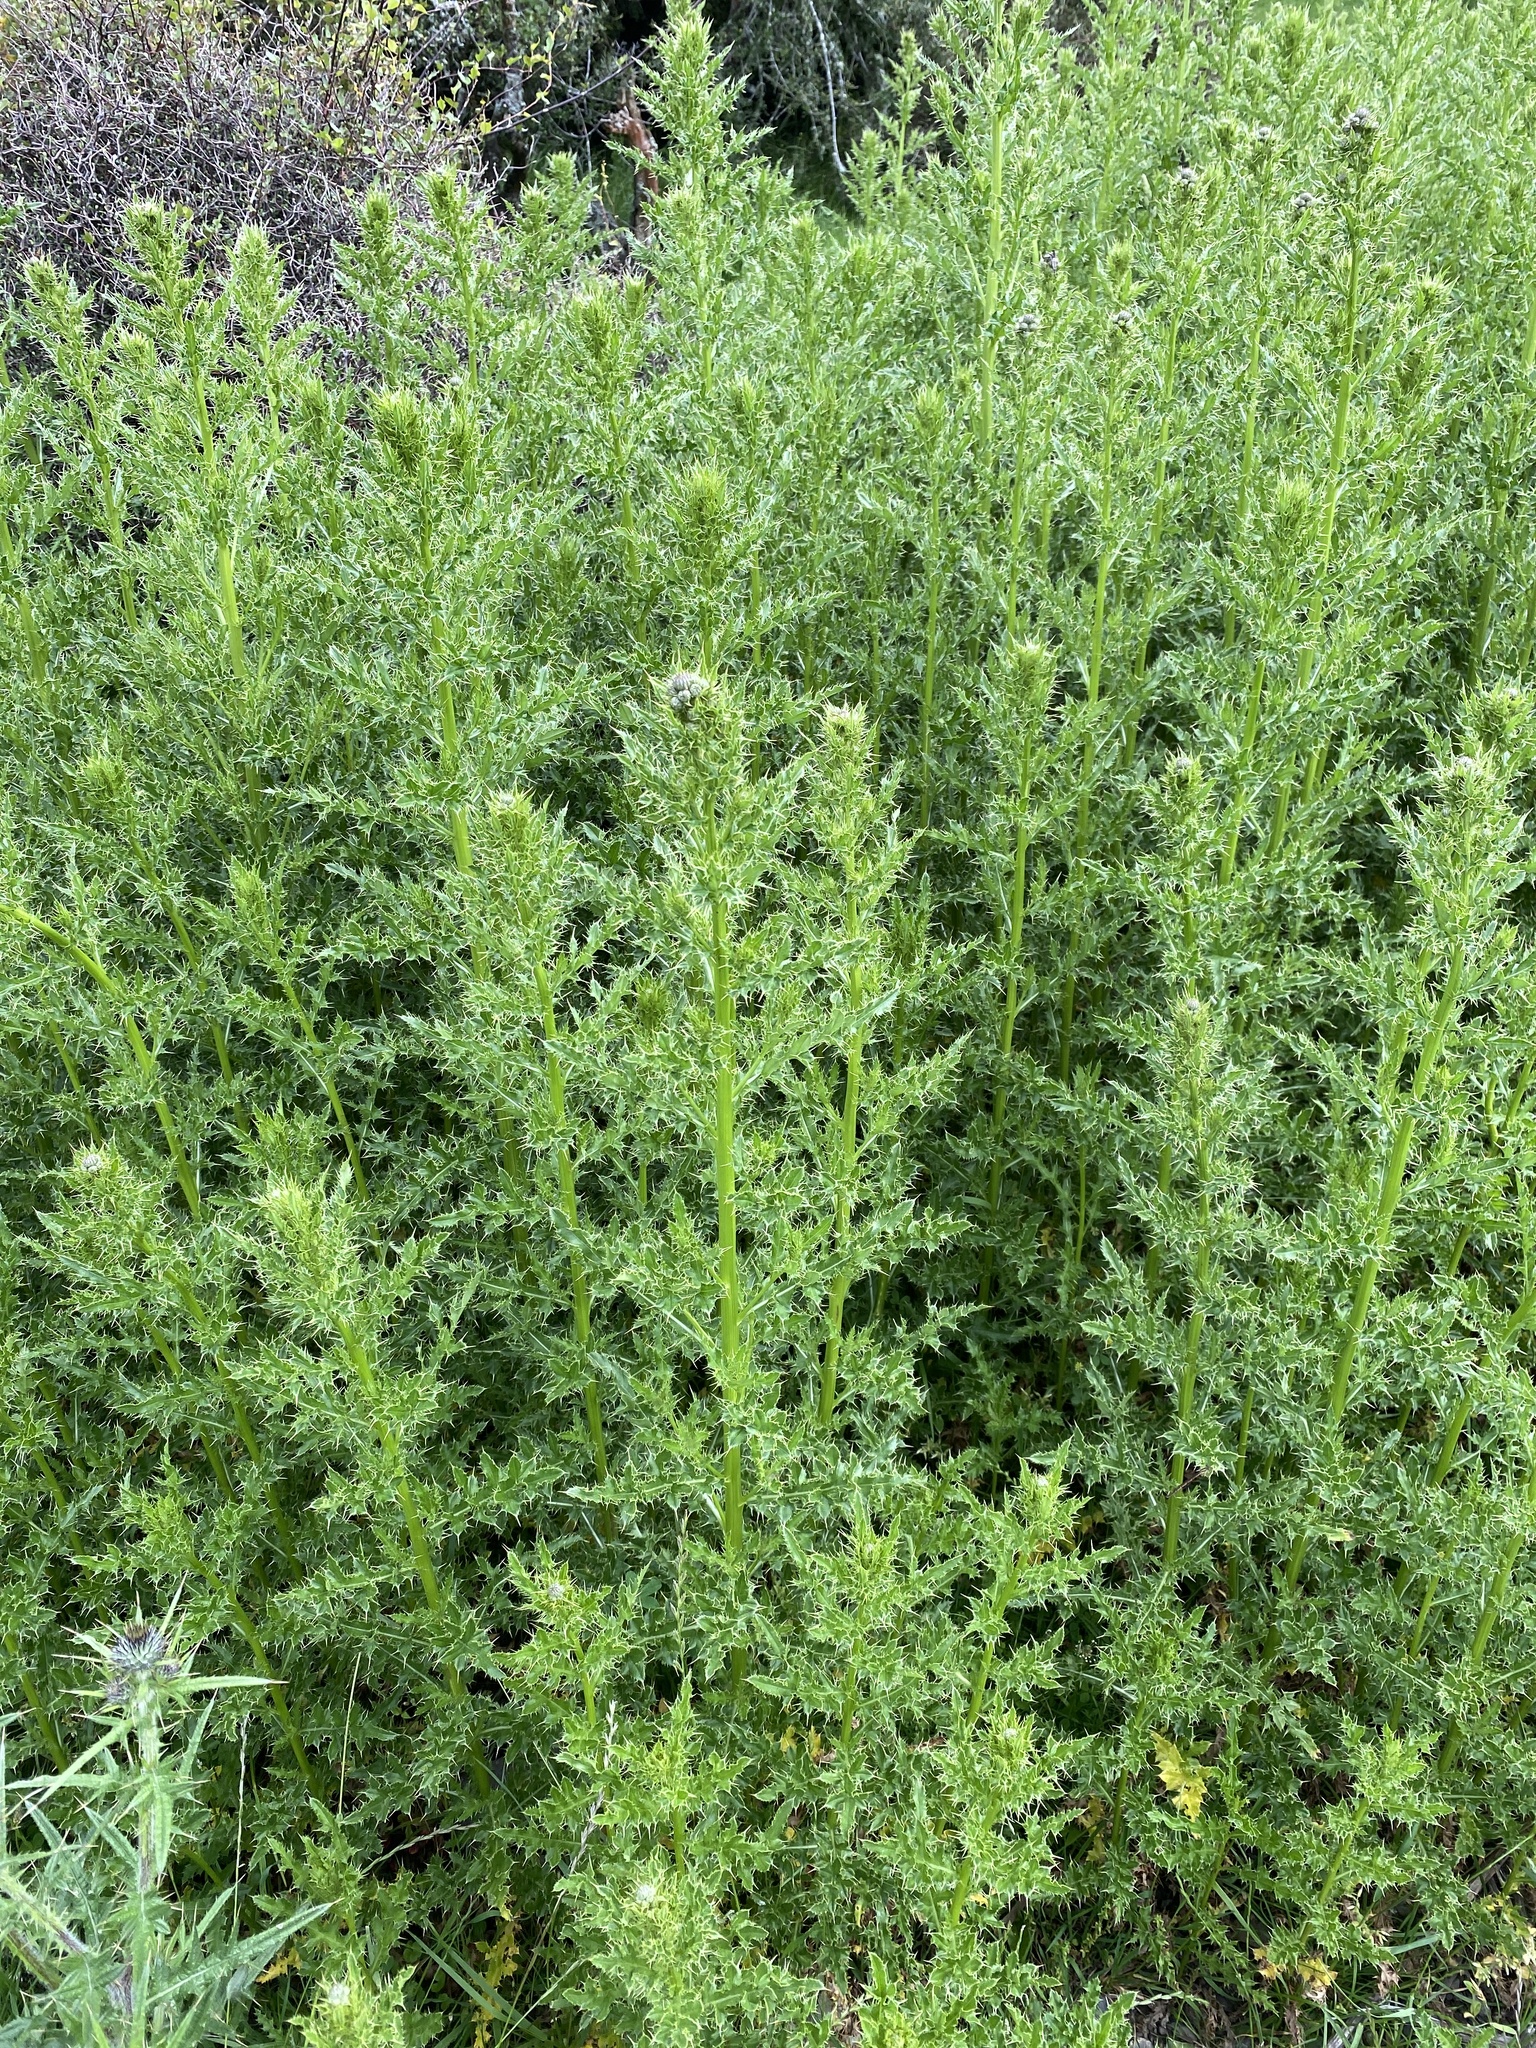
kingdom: Plantae
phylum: Tracheophyta
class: Magnoliopsida
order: Asterales
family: Asteraceae
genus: Cirsium
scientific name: Cirsium arvense
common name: Creeping thistle
